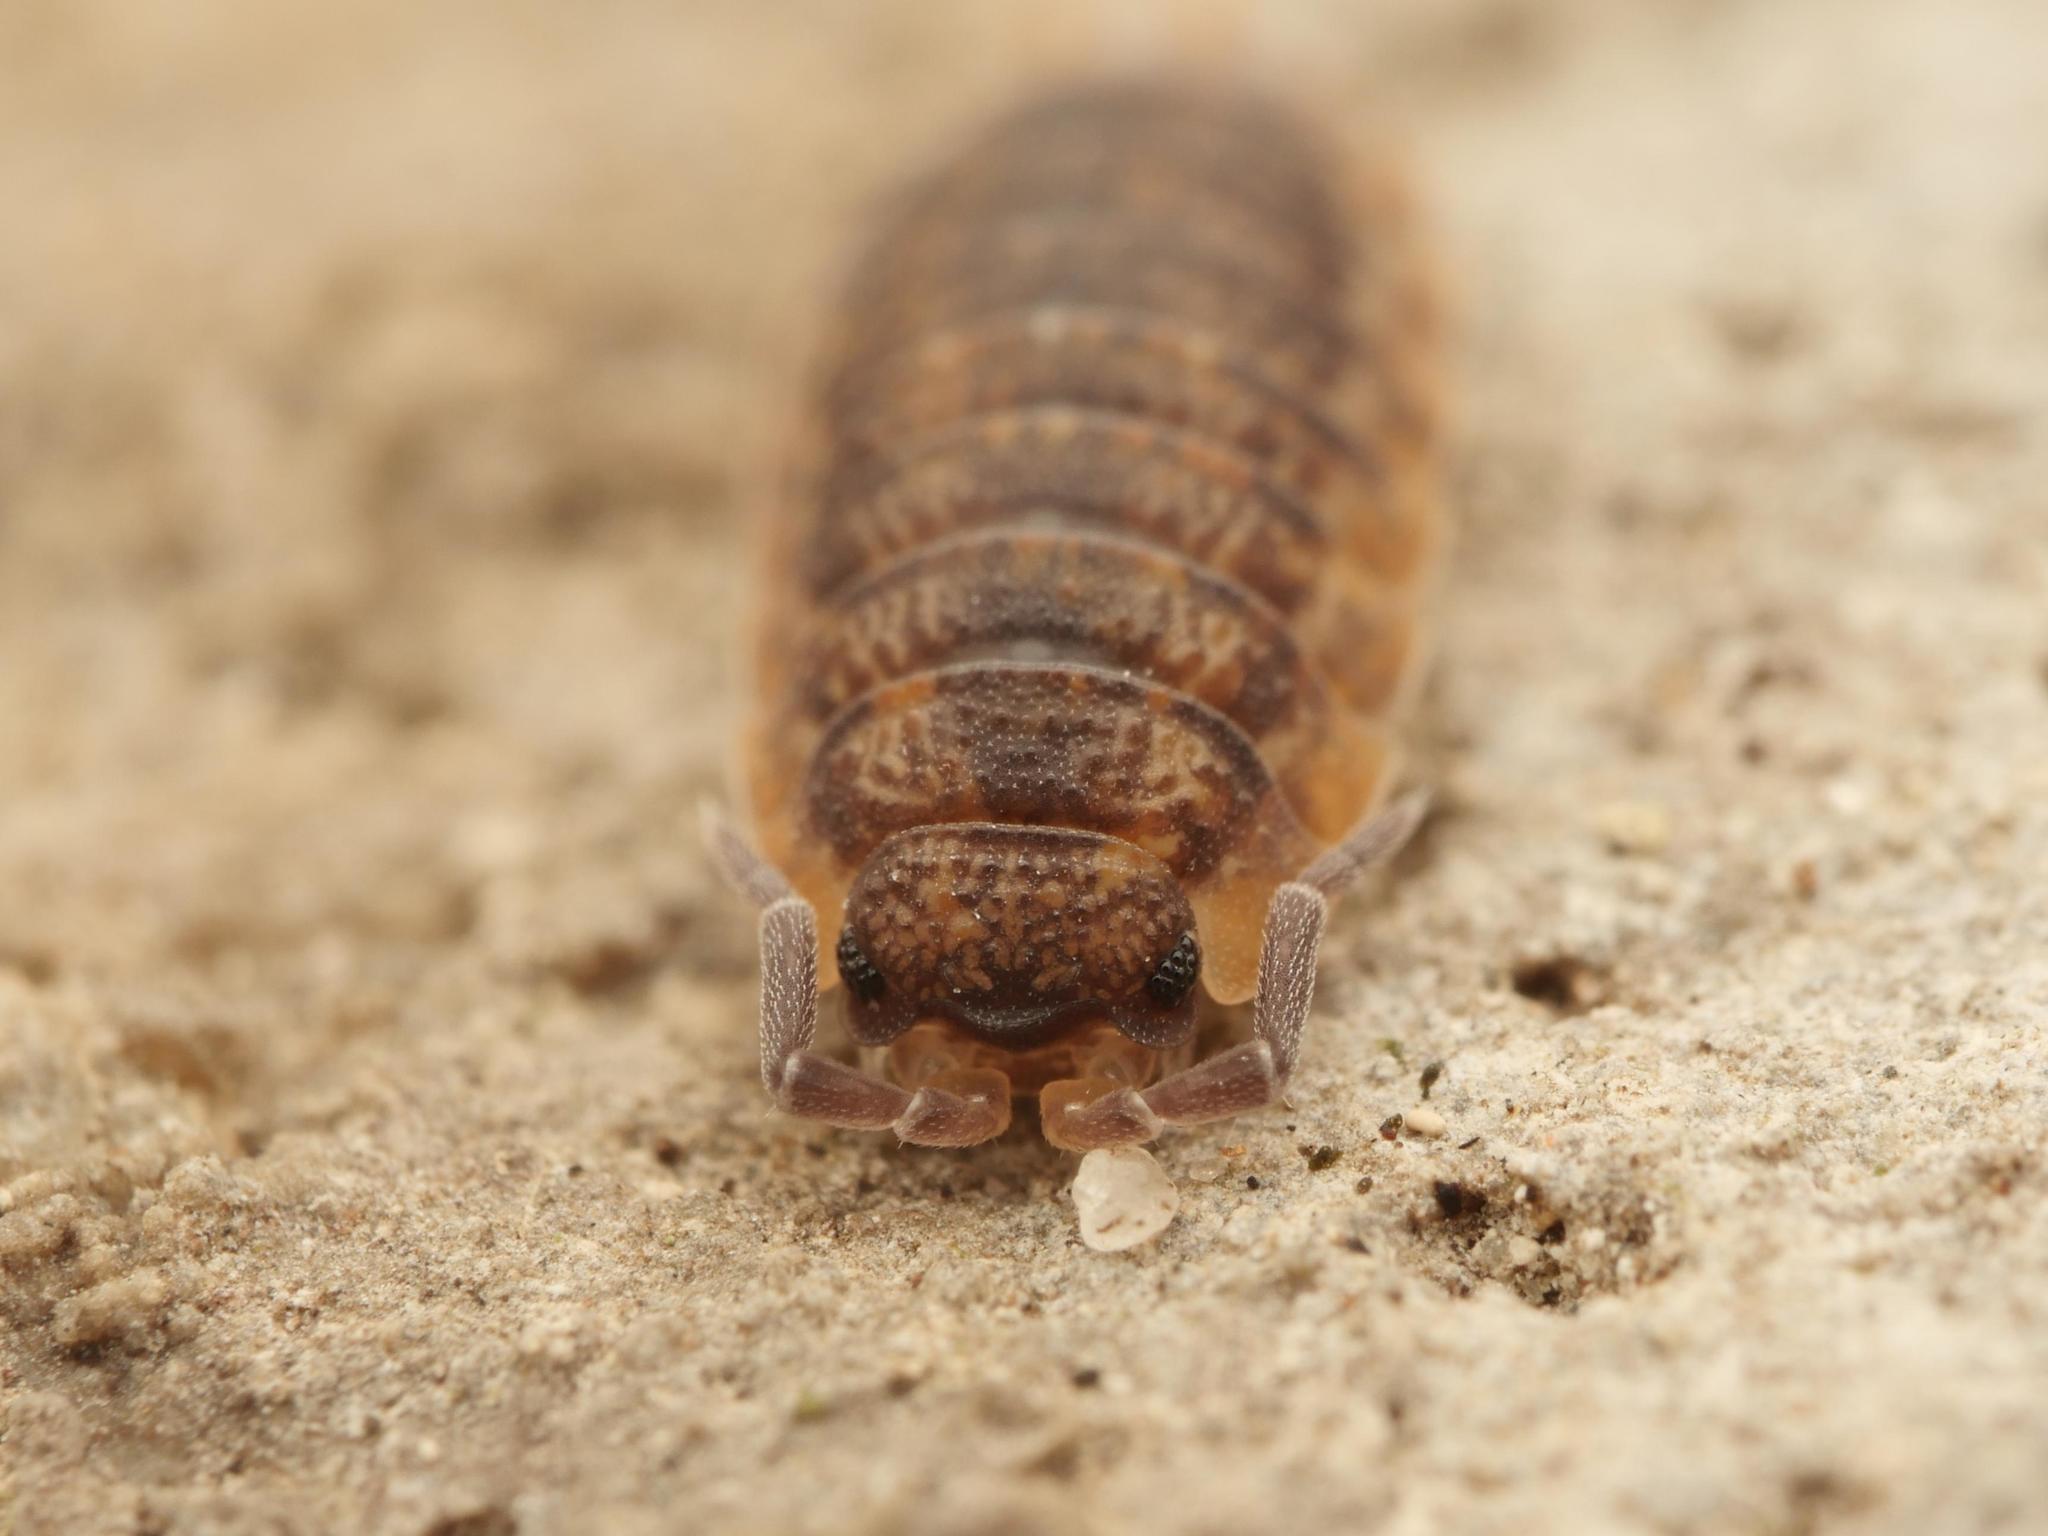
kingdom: Animalia
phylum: Arthropoda
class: Malacostraca
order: Isopoda
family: Porcellionidae
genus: Porcellio
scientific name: Porcellio scaber
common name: Common rough woodlouse
